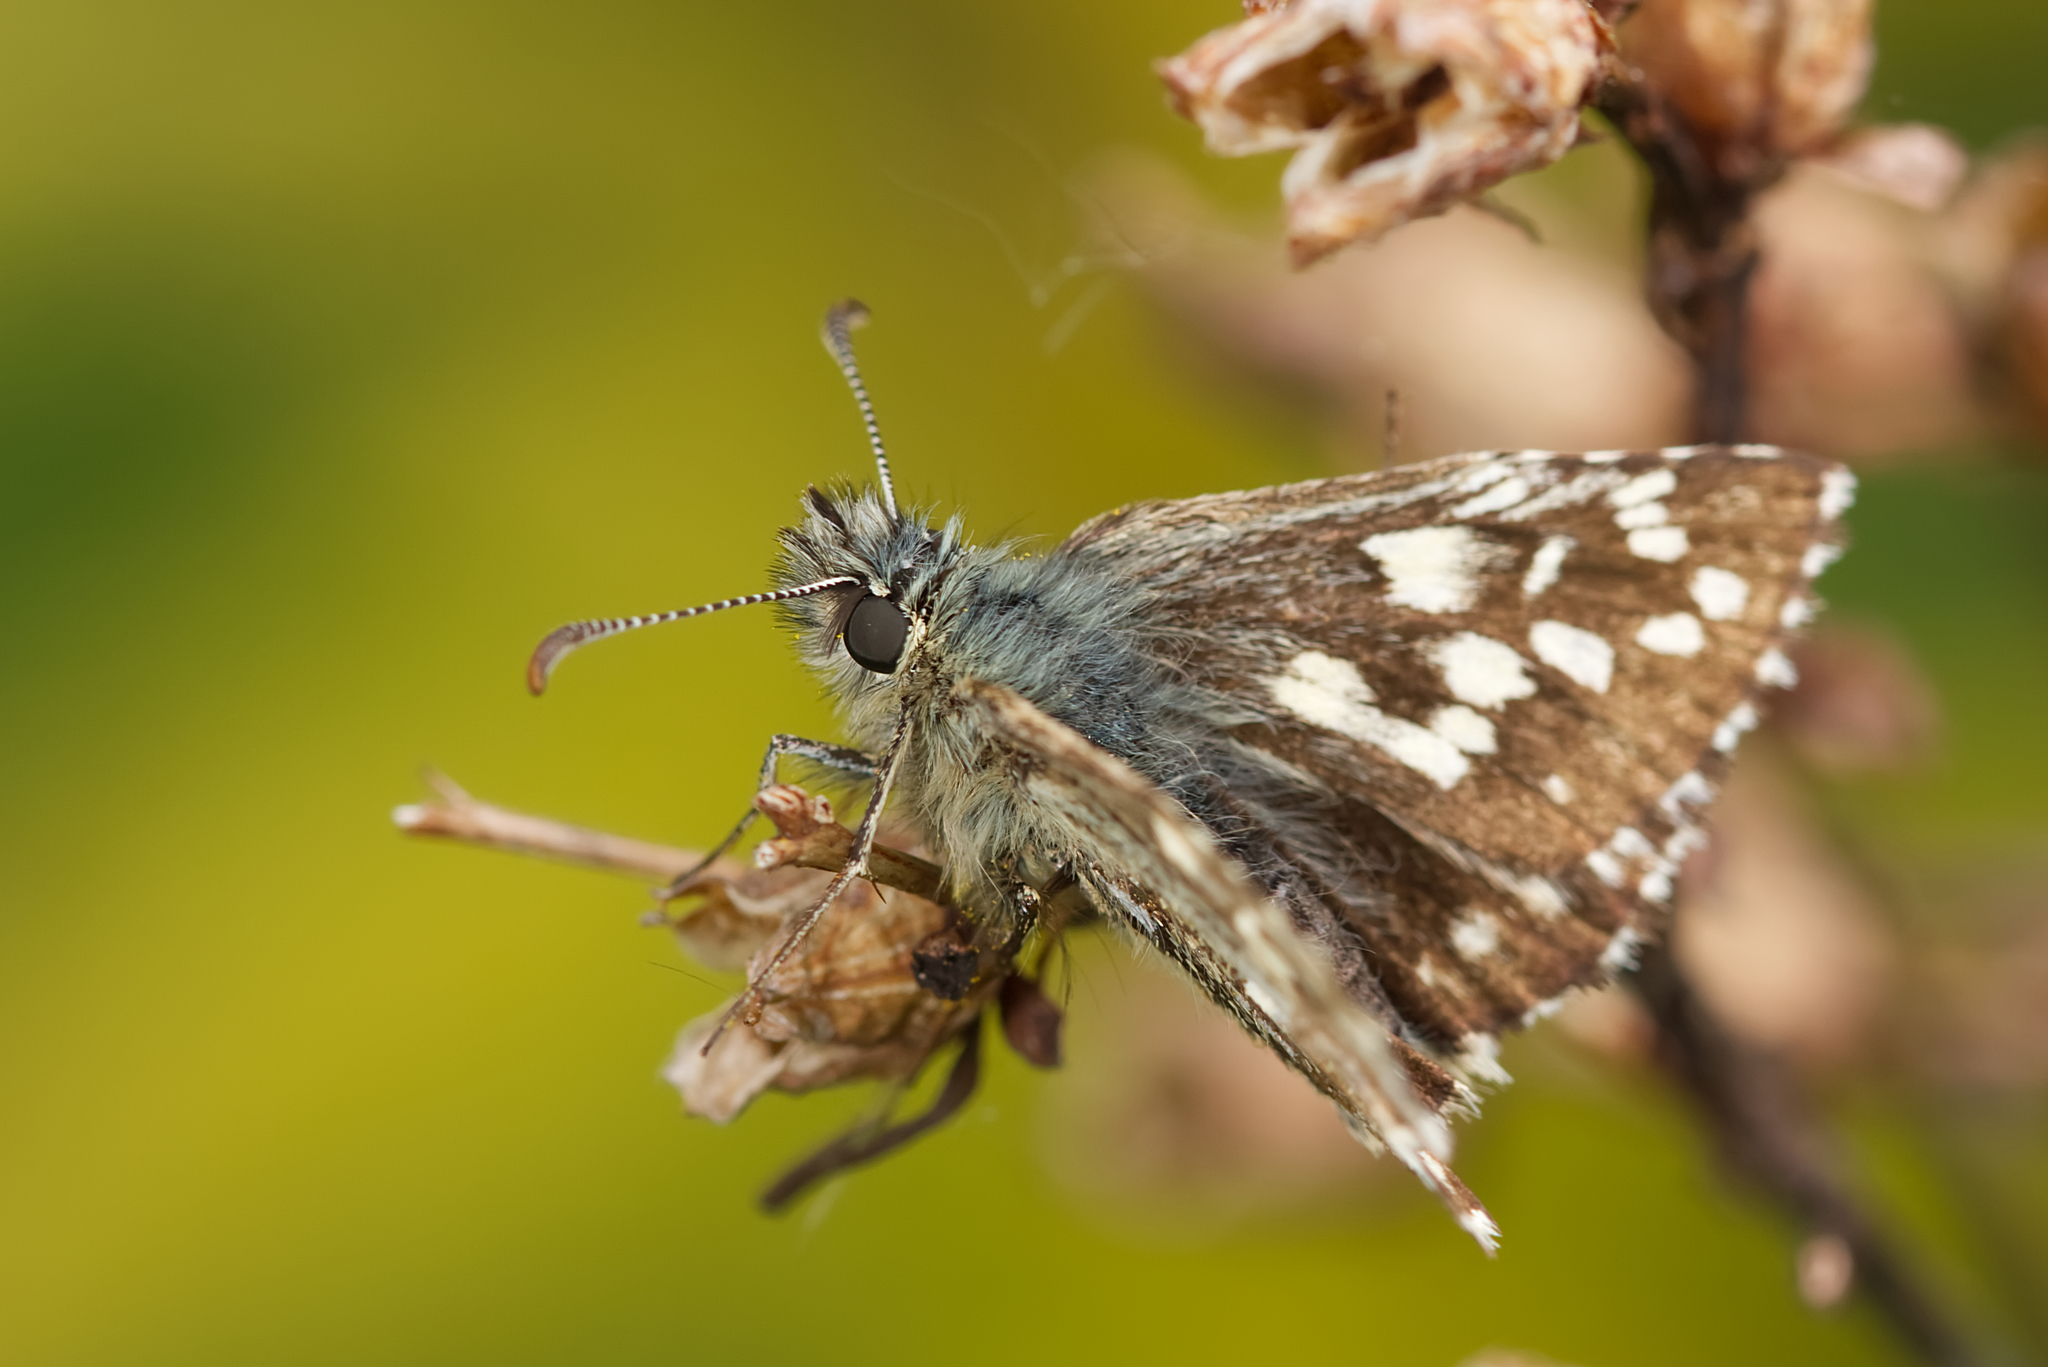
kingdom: Animalia
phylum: Arthropoda
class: Insecta
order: Lepidoptera
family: Hesperiidae
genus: Pyrgus
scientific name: Pyrgus malvae
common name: Grizzled skipper
